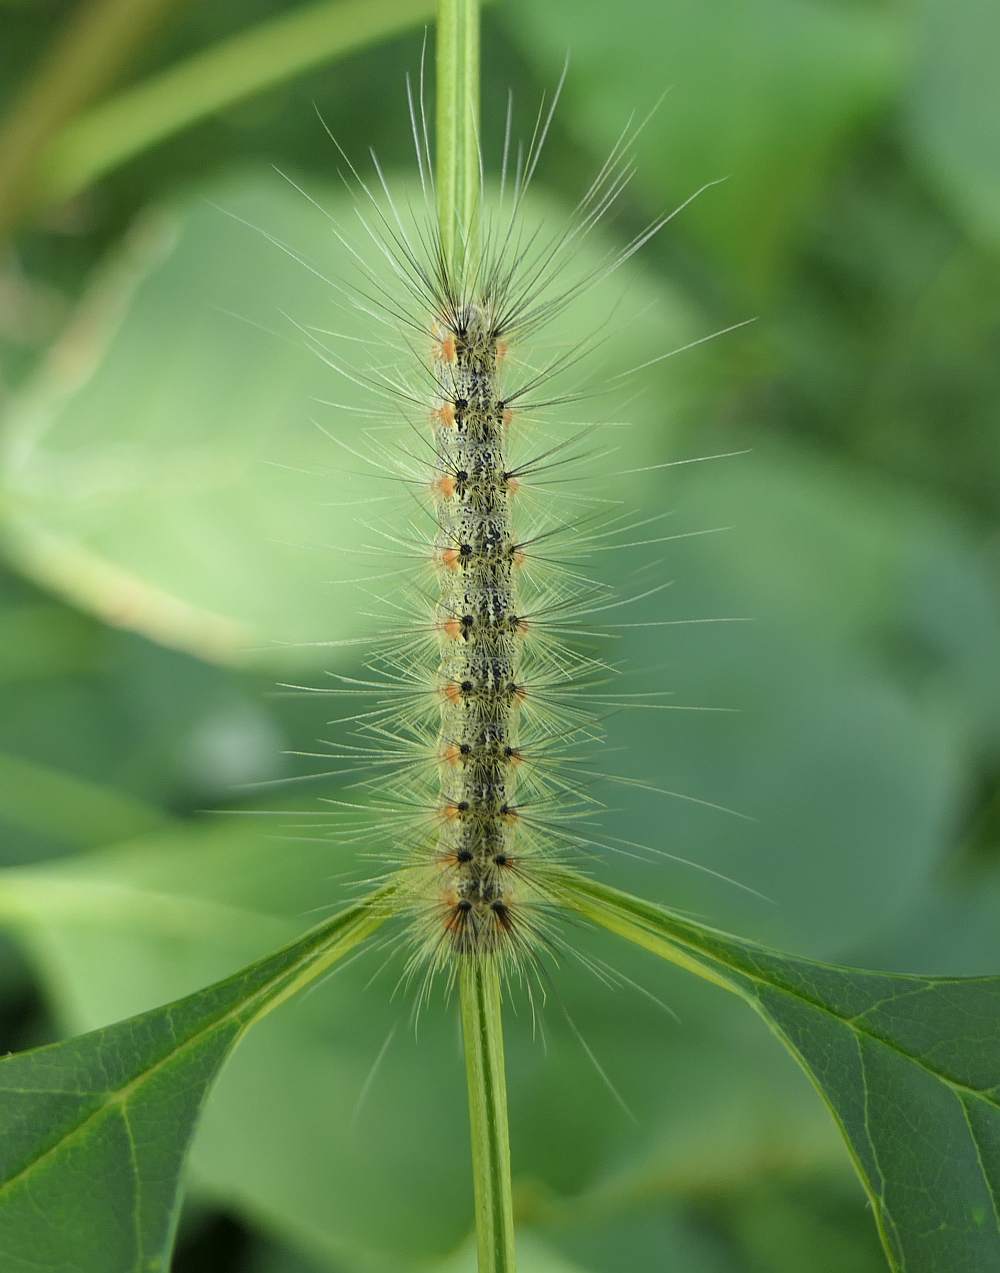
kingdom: Animalia
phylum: Arthropoda
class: Insecta
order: Lepidoptera
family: Erebidae
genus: Hyphantria
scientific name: Hyphantria cunea
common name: American white moth
